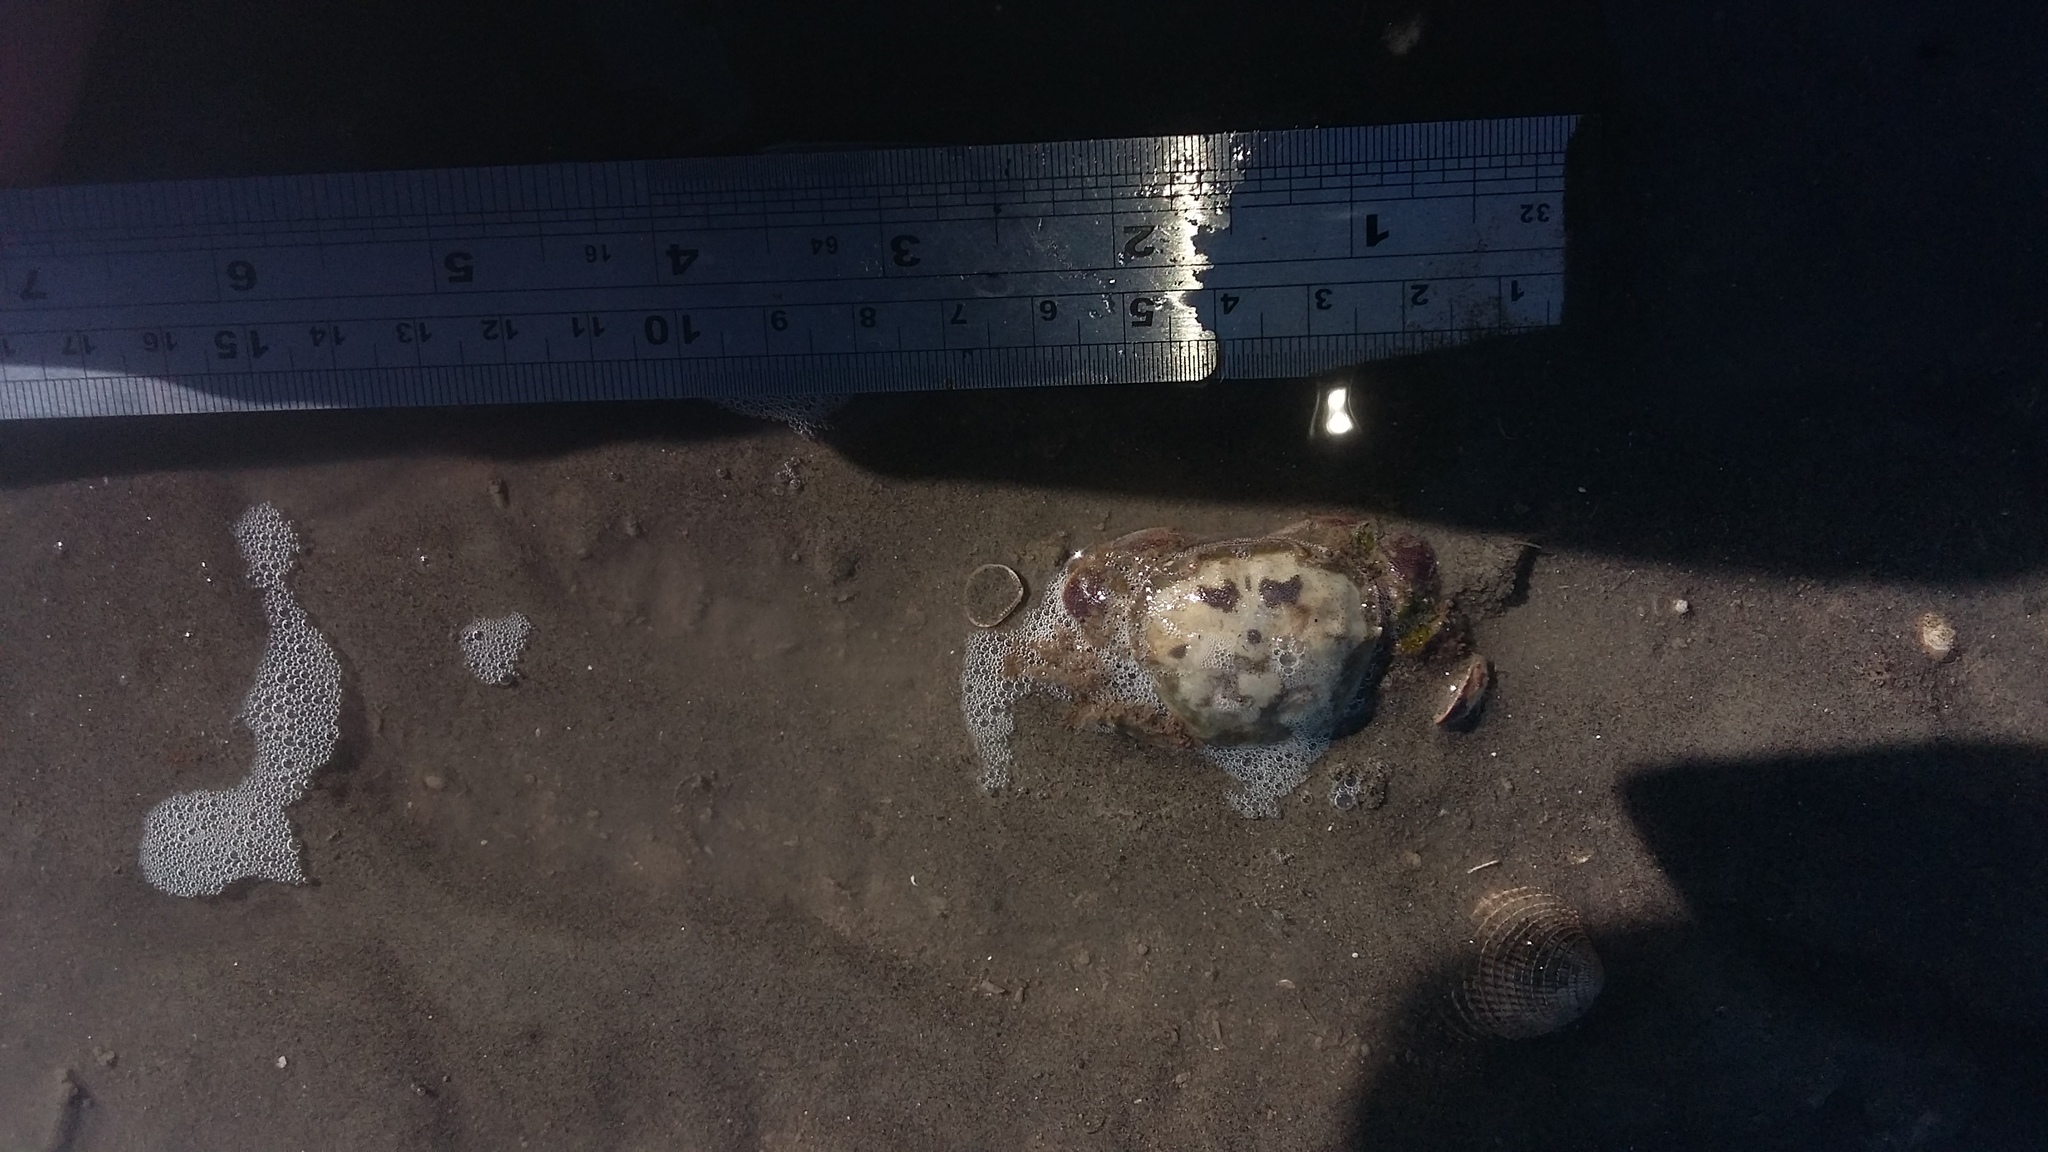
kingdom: Animalia
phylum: Arthropoda
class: Malacostraca
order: Decapoda
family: Varunidae
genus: Hemigrapsus
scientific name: Hemigrapsus crenulatus
